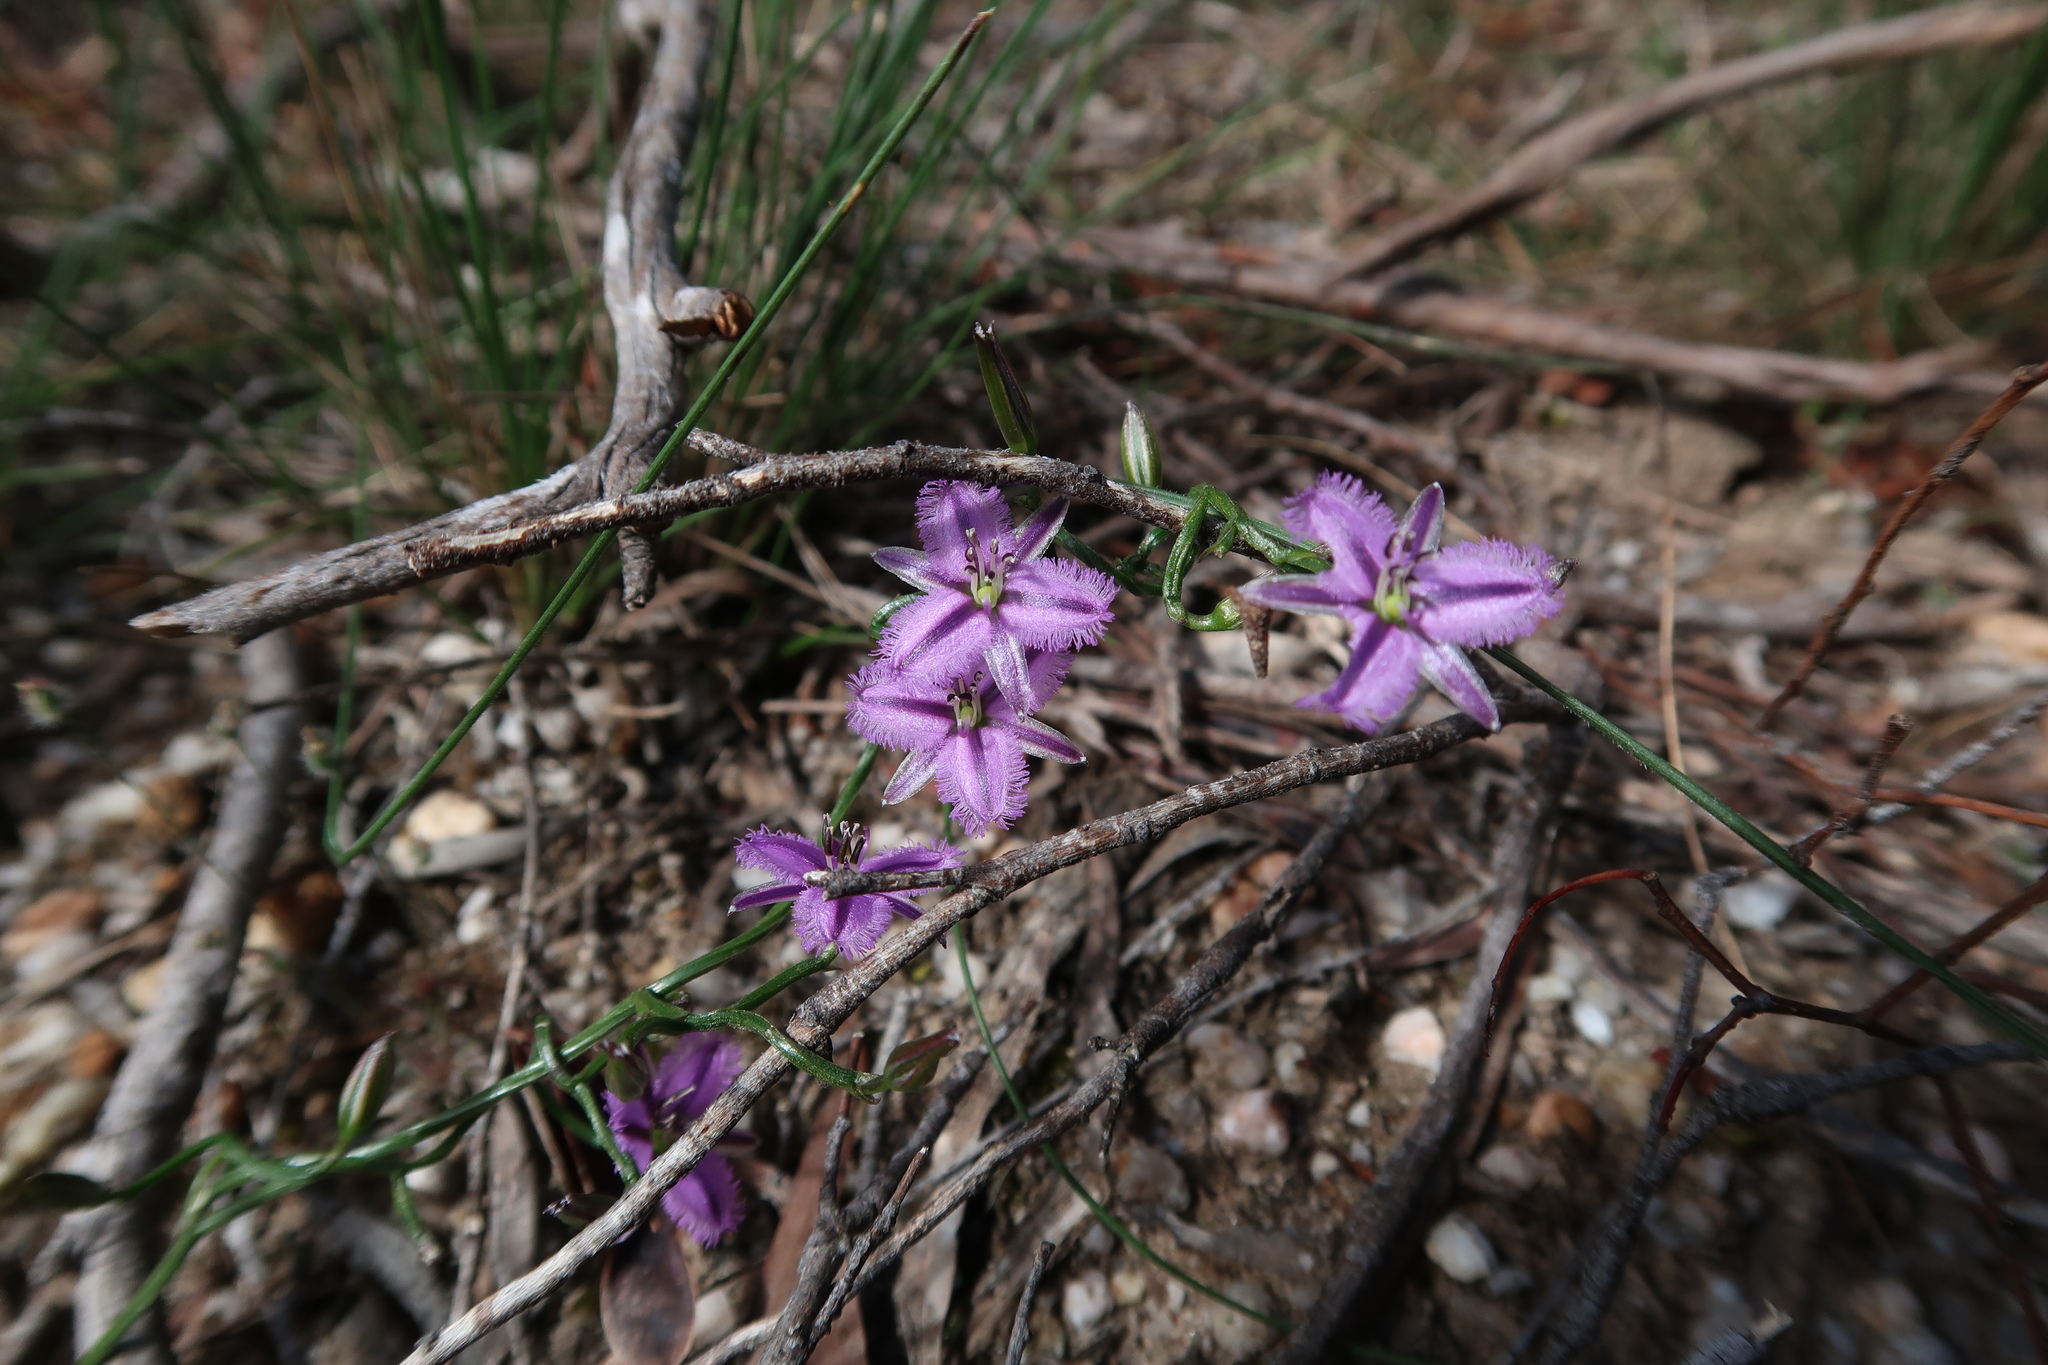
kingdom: Plantae
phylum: Tracheophyta
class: Liliopsida
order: Asparagales
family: Asparagaceae
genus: Thysanotus
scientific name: Thysanotus patersonii
